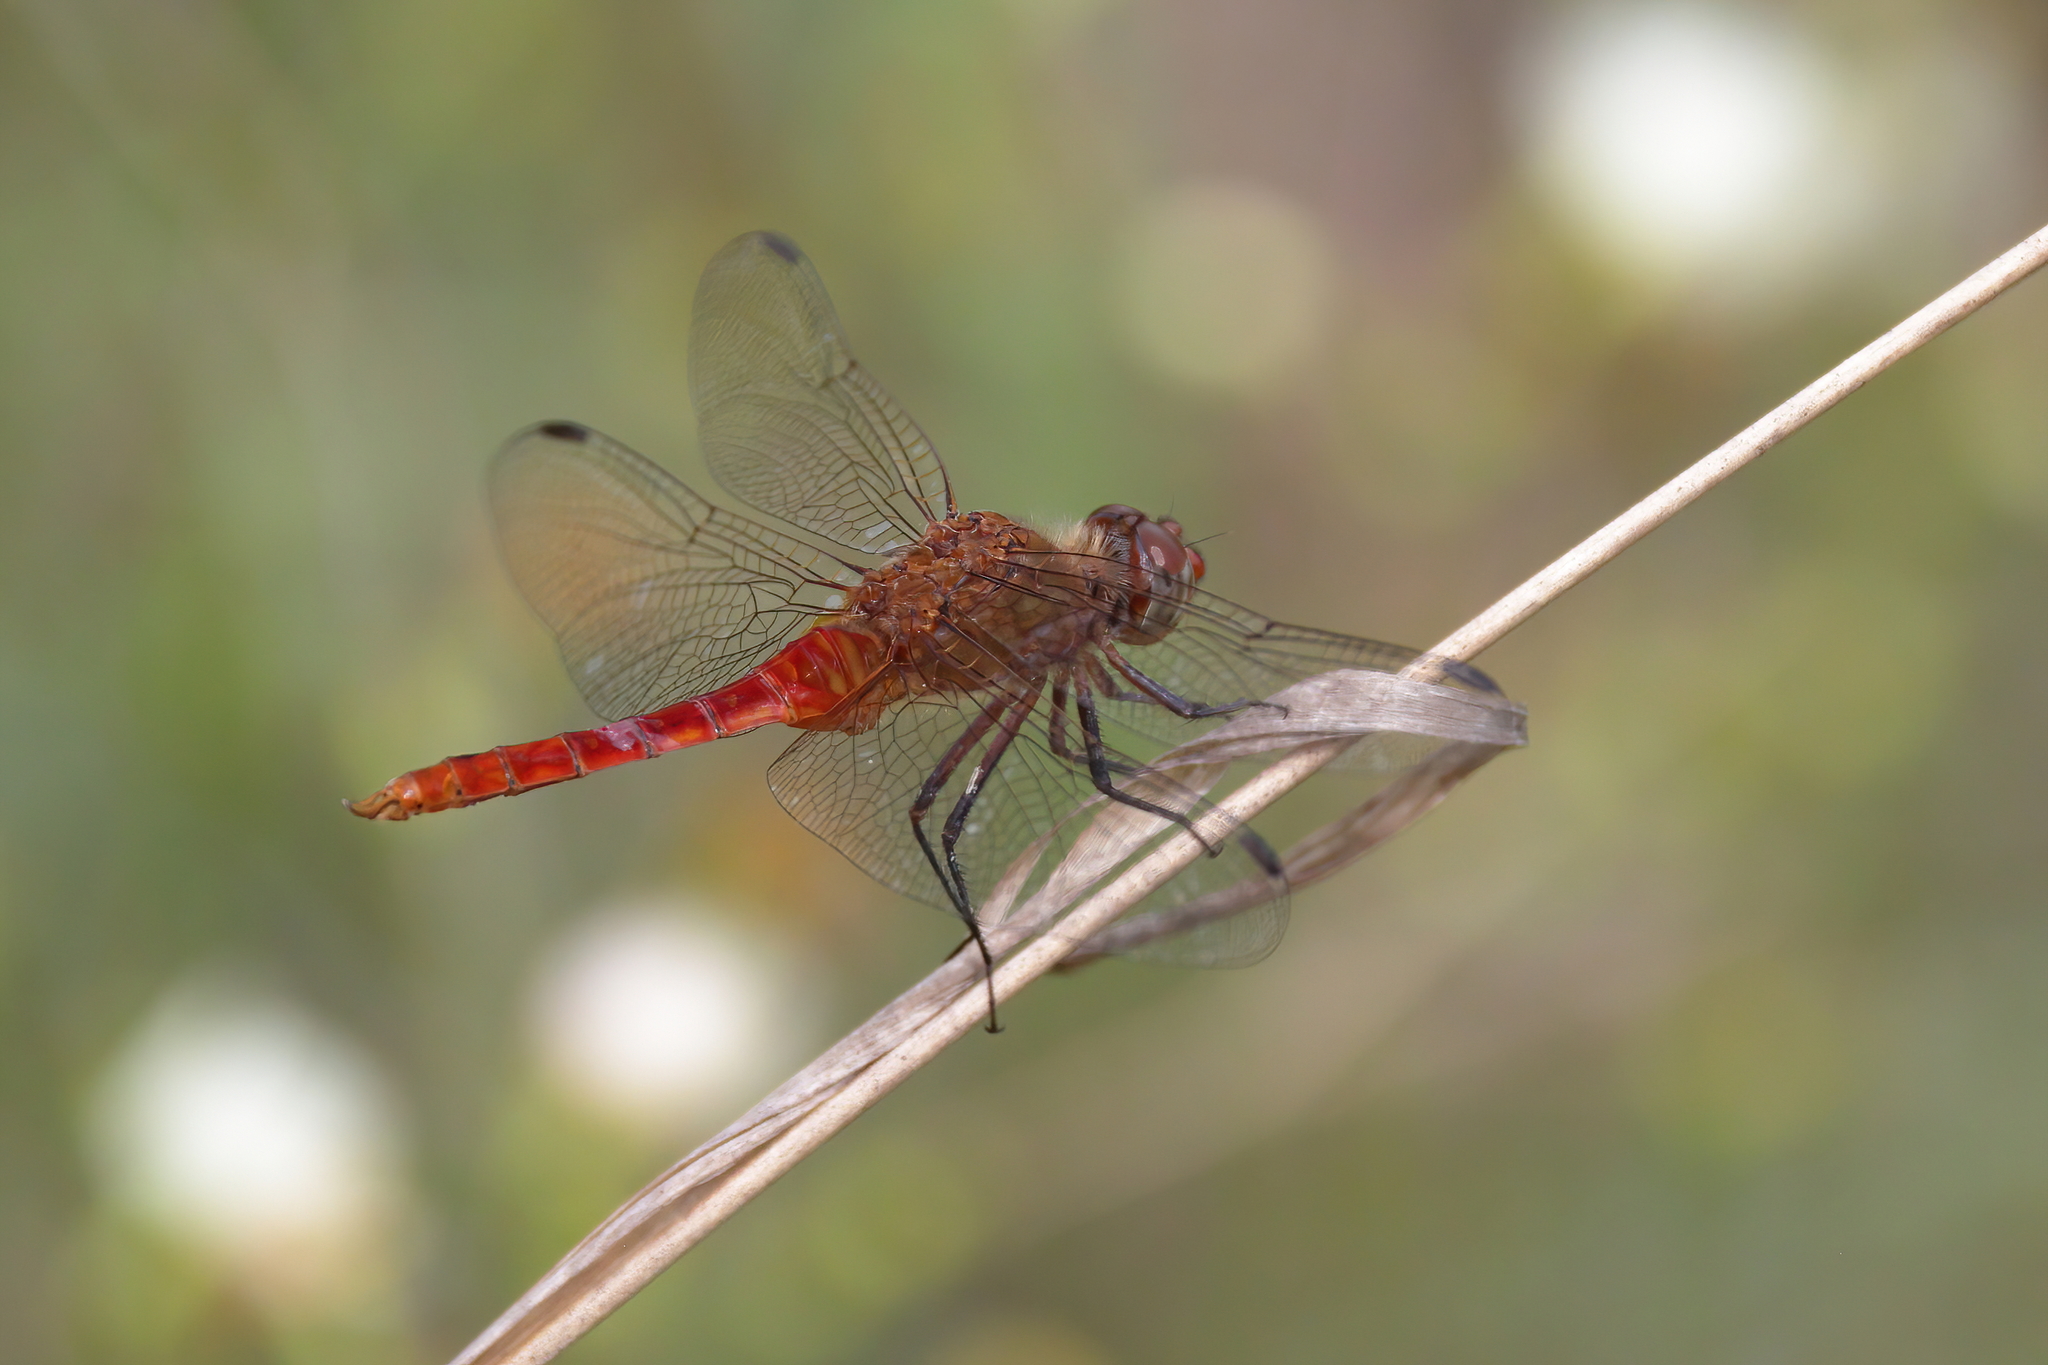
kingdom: Animalia
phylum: Arthropoda
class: Insecta
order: Odonata
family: Libellulidae
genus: Brachymesia
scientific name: Brachymesia furcata
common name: Red-taled pennant
